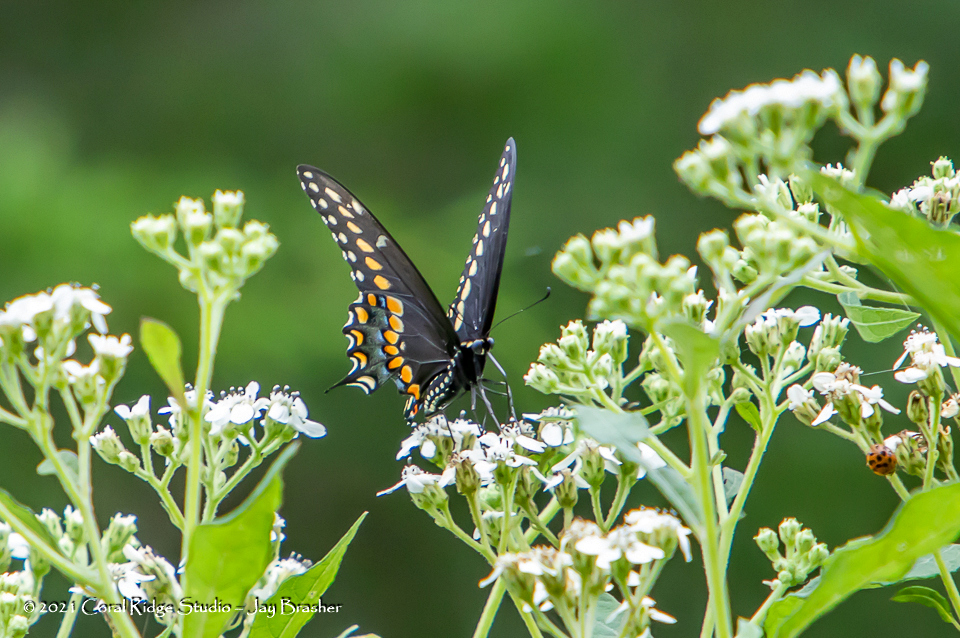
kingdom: Animalia
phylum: Arthropoda
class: Insecta
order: Lepidoptera
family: Papilionidae
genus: Papilio
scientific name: Papilio polyxenes
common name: Black swallowtail
